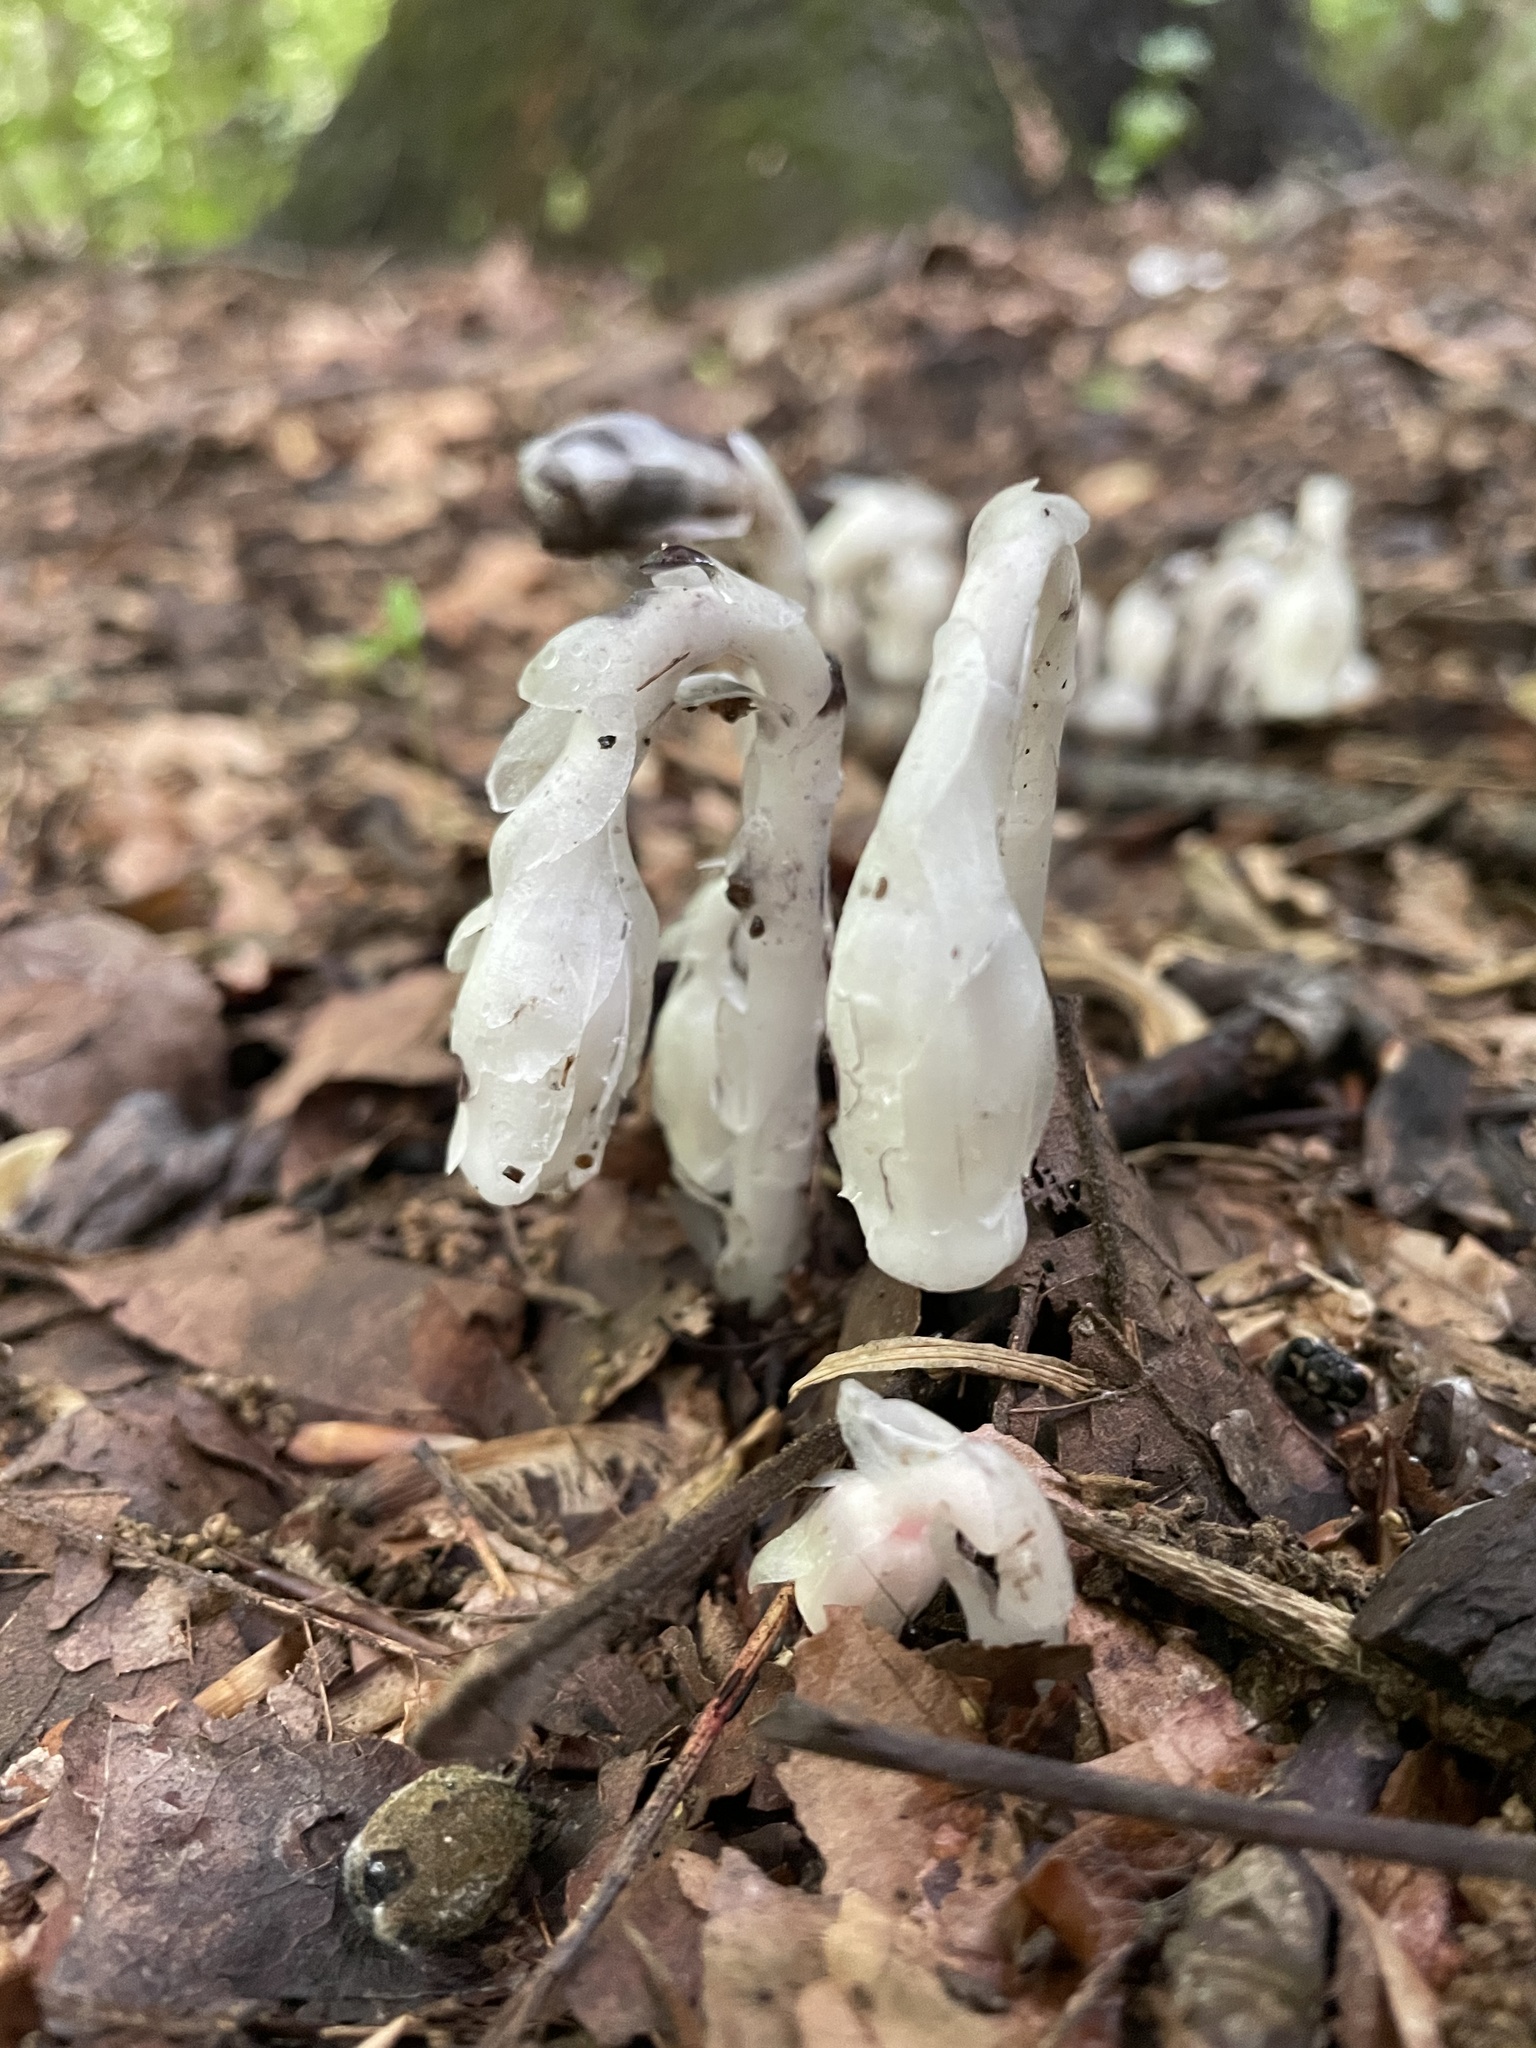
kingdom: Plantae
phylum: Tracheophyta
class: Magnoliopsida
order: Ericales
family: Ericaceae
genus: Monotropa
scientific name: Monotropa uniflora
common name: Convulsion root
